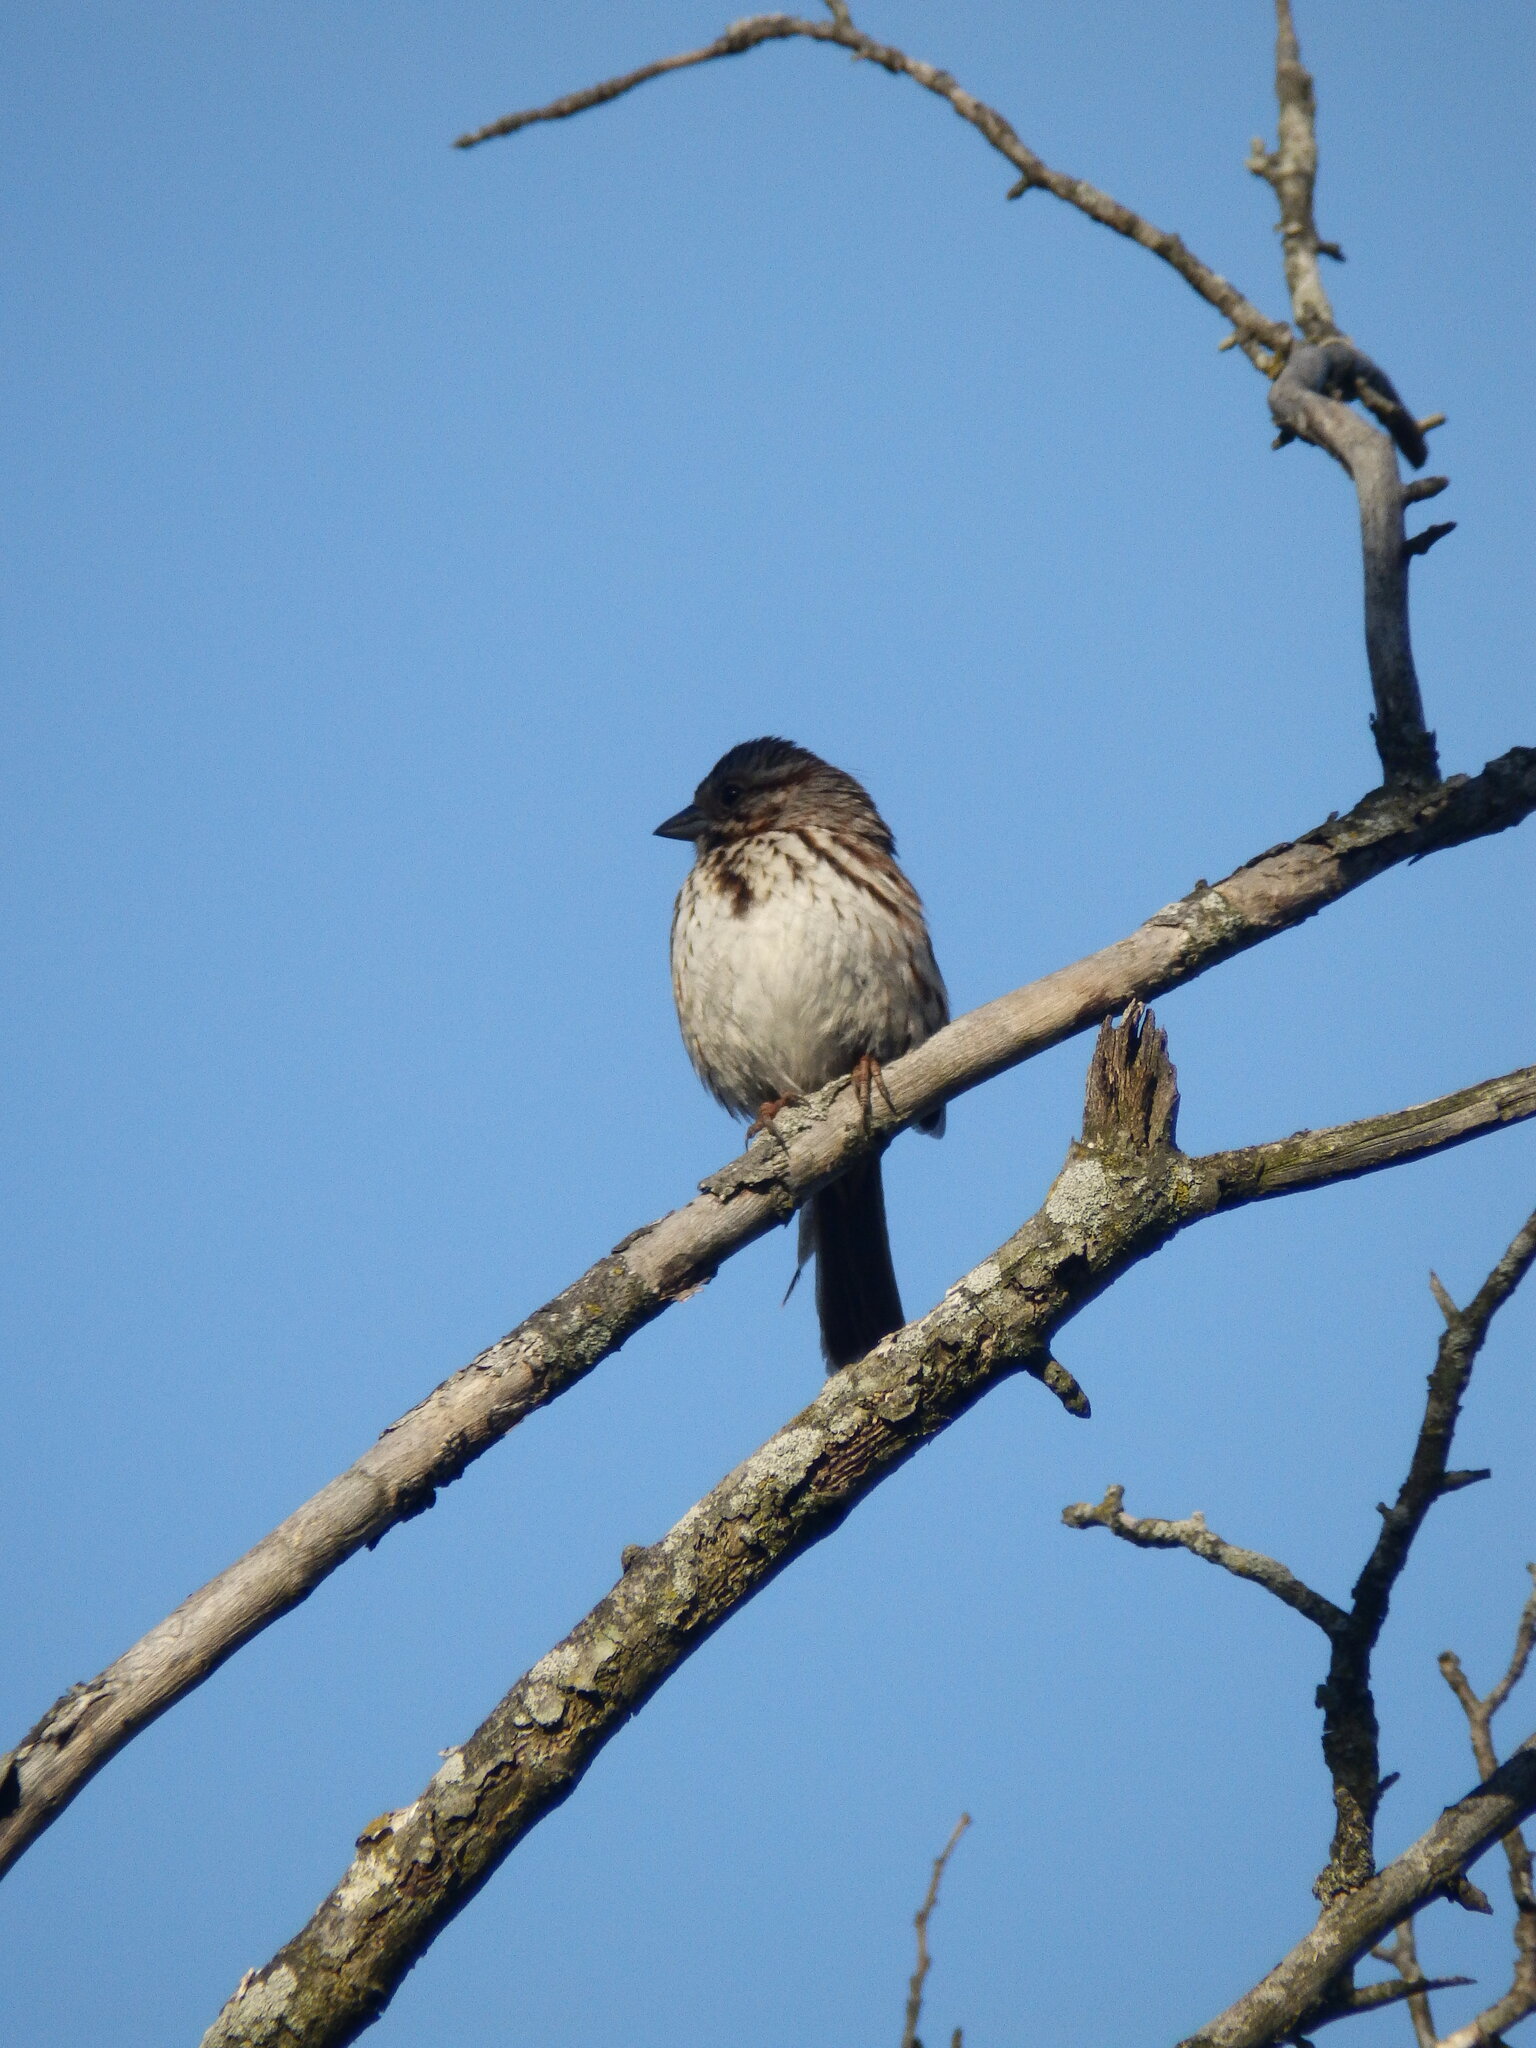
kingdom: Animalia
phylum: Chordata
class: Aves
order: Passeriformes
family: Passerellidae
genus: Melospiza
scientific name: Melospiza melodia
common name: Song sparrow
